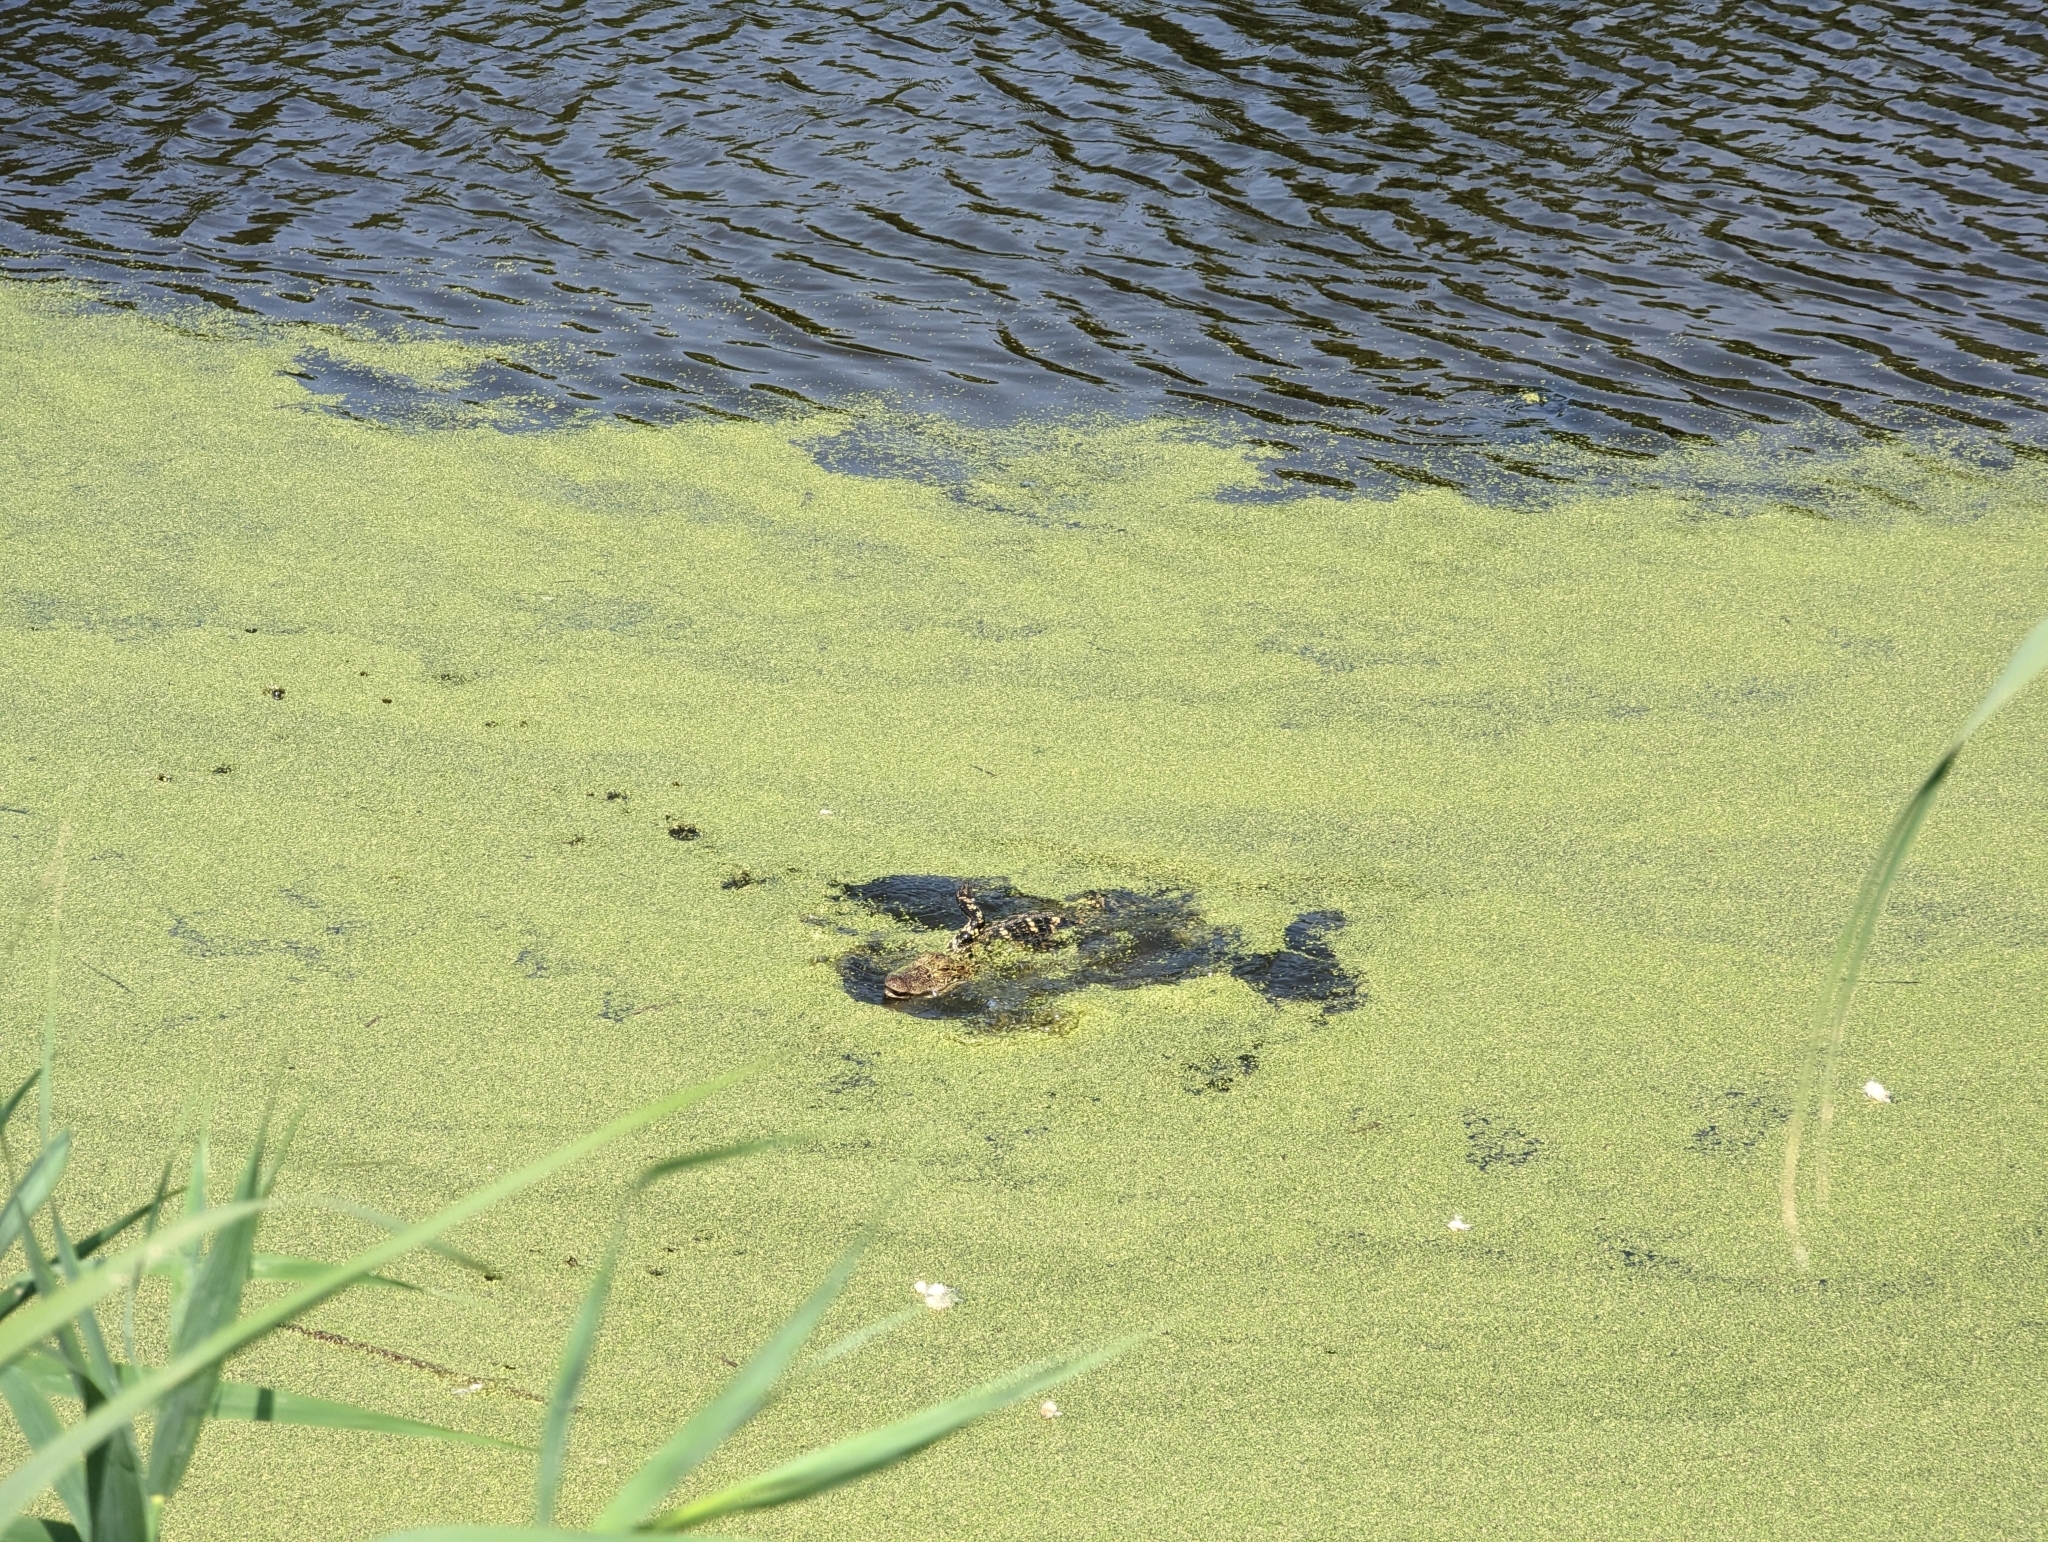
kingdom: Animalia
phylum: Chordata
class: Crocodylia
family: Alligatoridae
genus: Alligator
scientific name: Alligator mississippiensis
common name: American alligator
